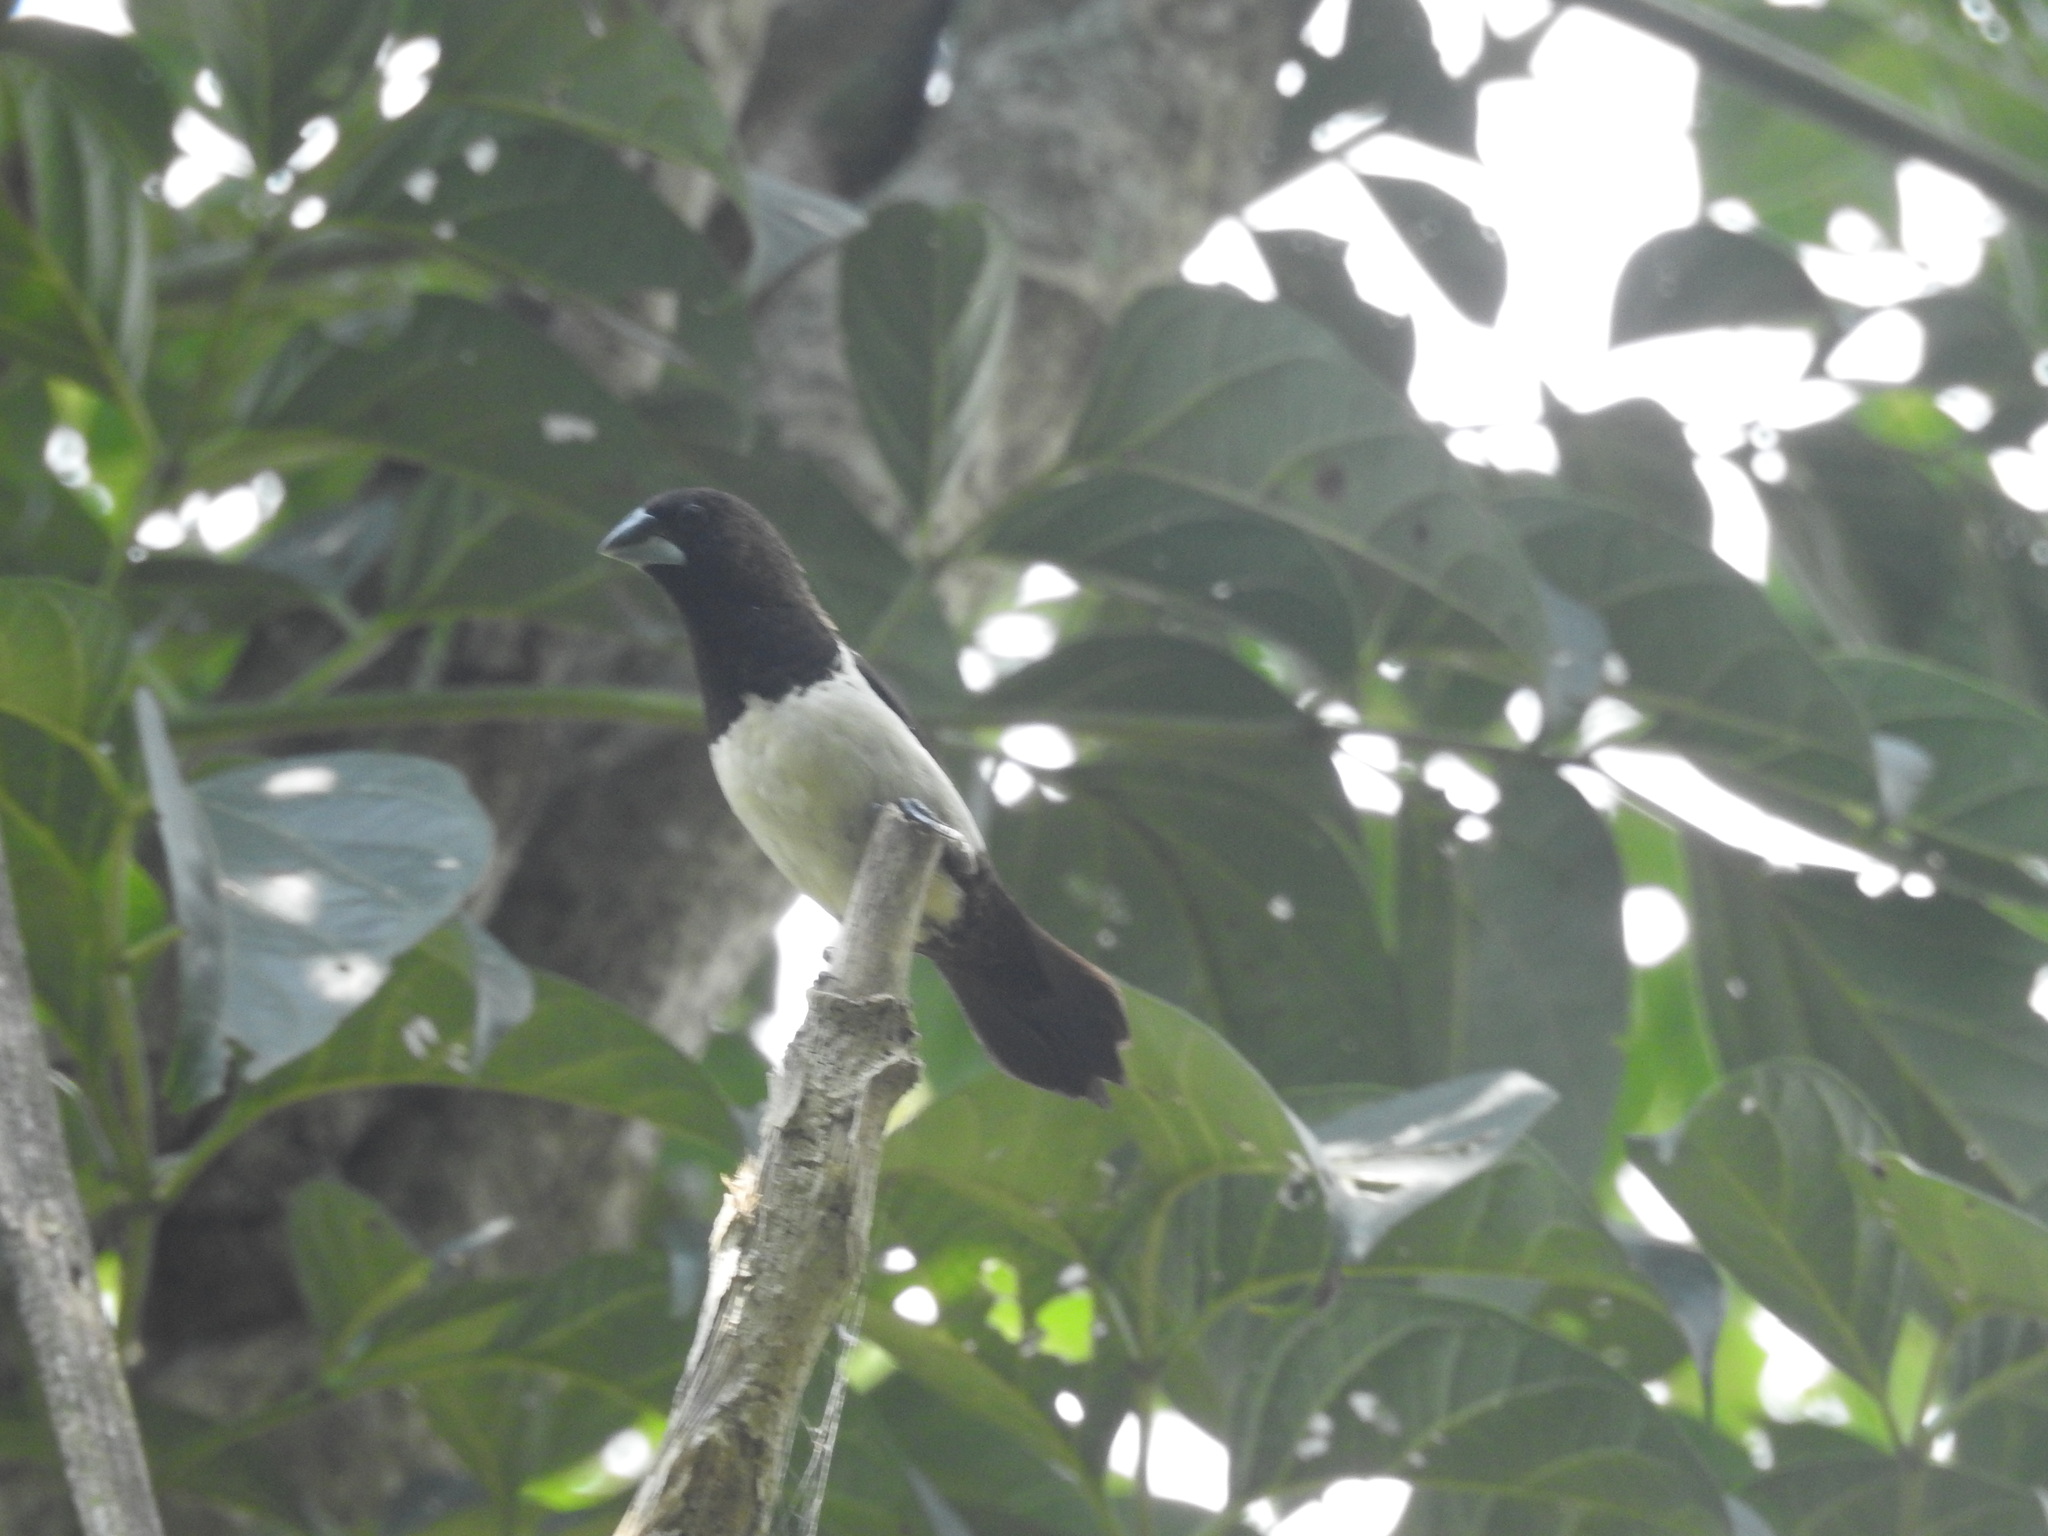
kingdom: Animalia
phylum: Chordata
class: Aves
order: Passeriformes
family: Estrildidae
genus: Lonchura
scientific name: Lonchura striata
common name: White-rumped munia
